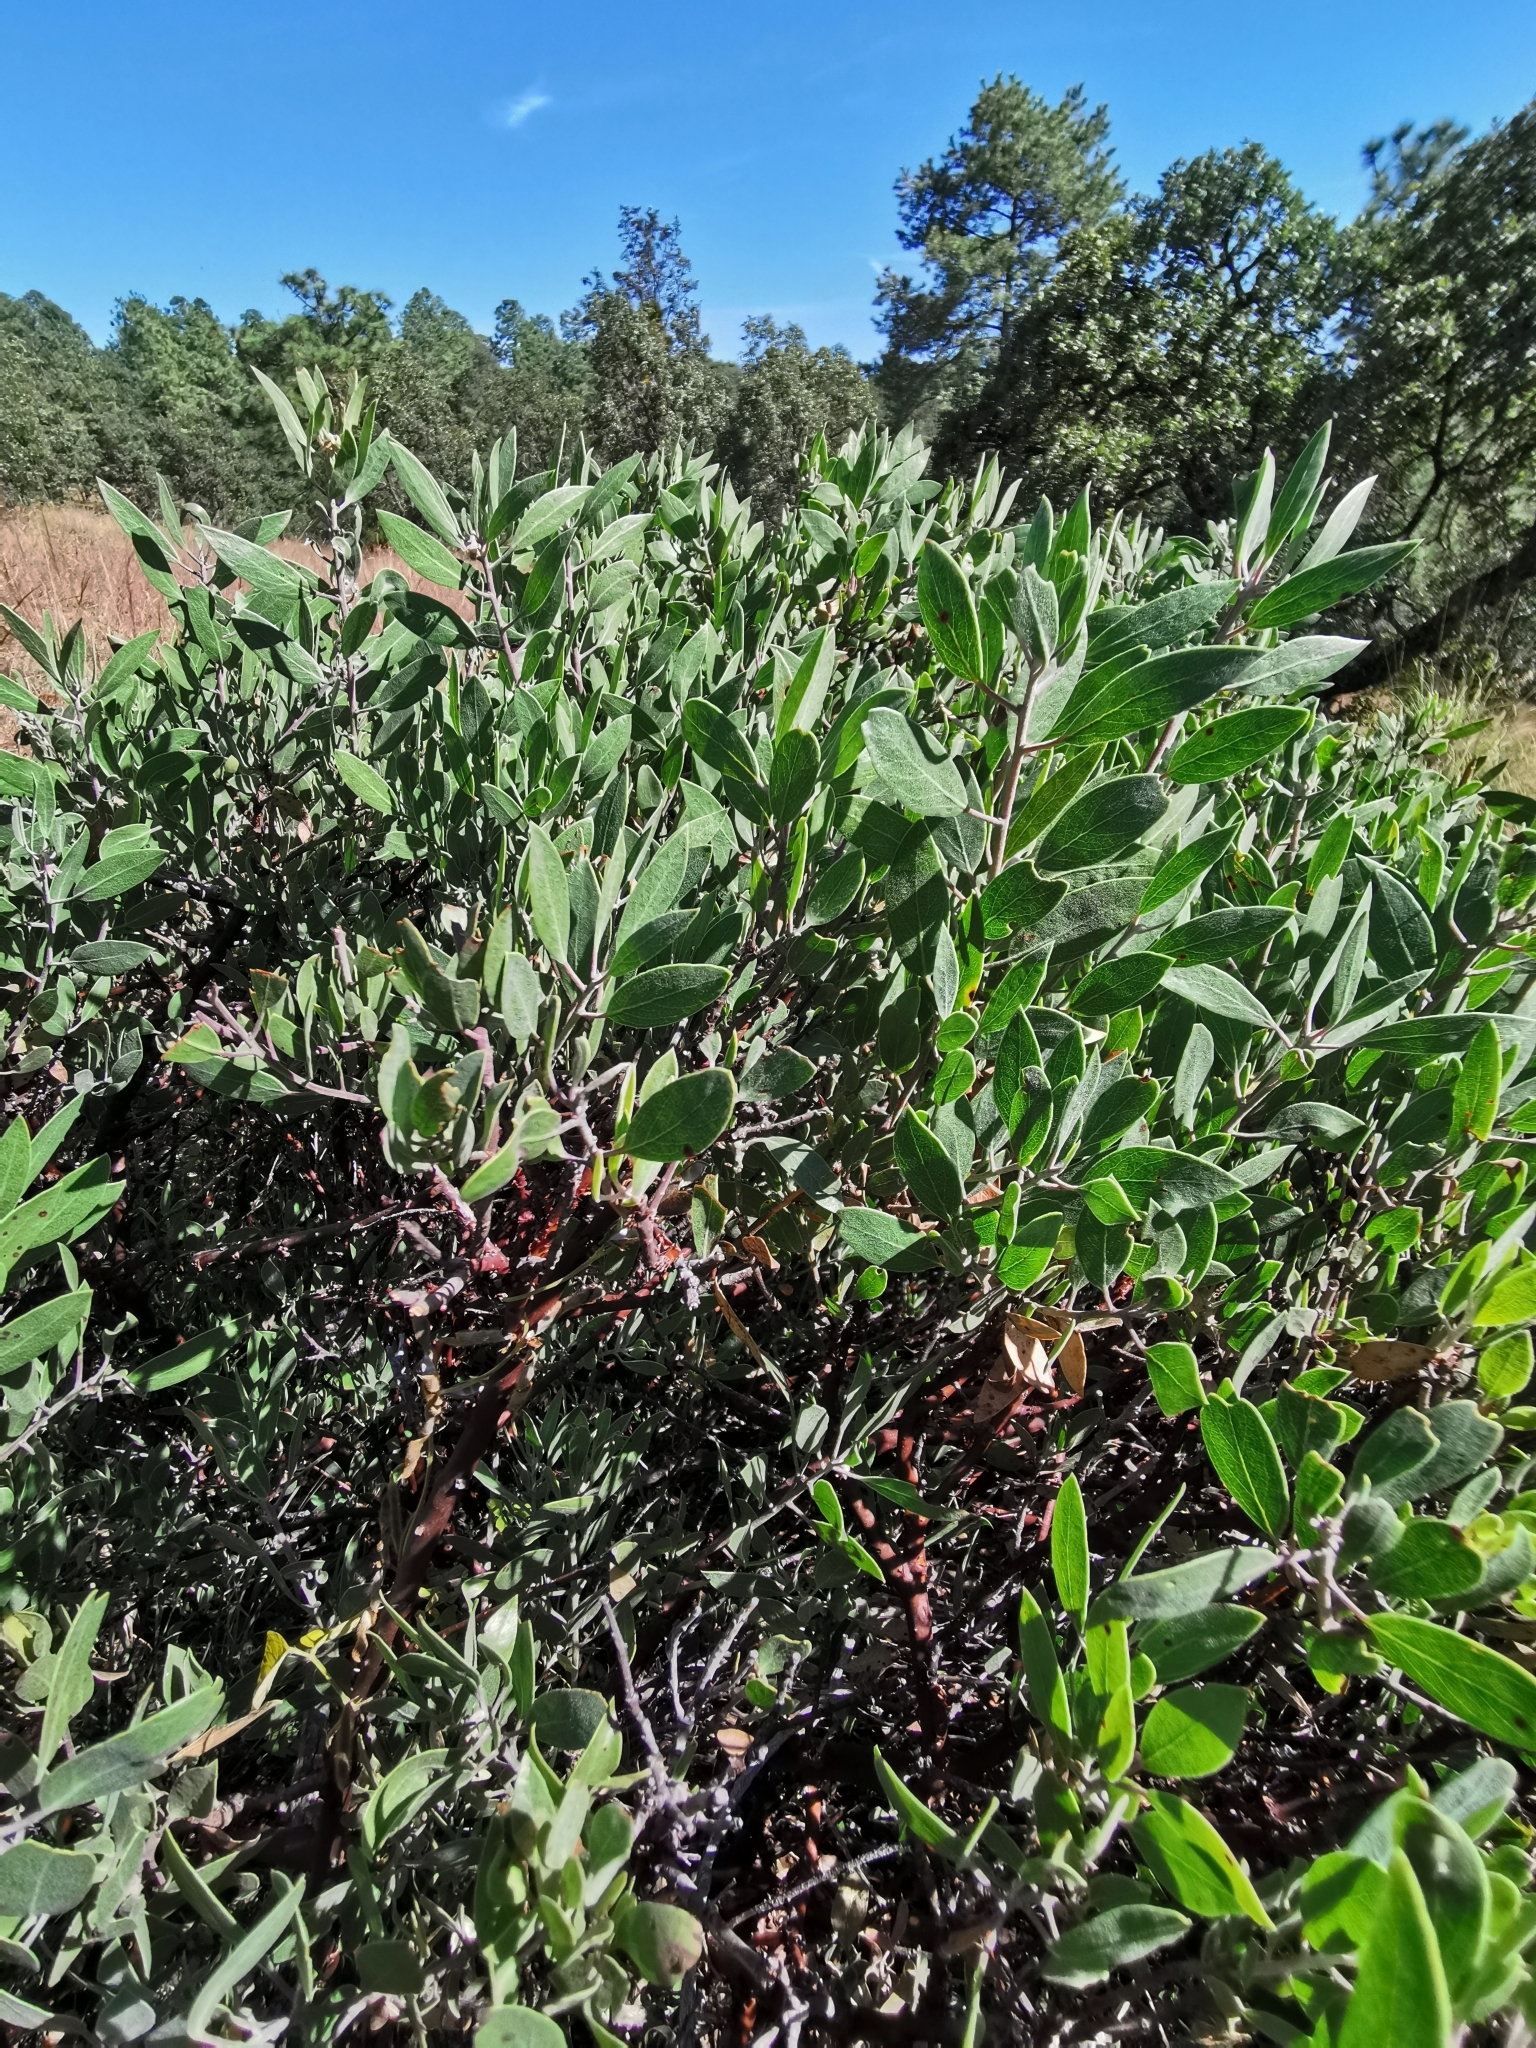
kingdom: Plantae
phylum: Tracheophyta
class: Magnoliopsida
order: Ericales
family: Ericaceae
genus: Arctostaphylos
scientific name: Arctostaphylos pungens
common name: Mexican manzanita
